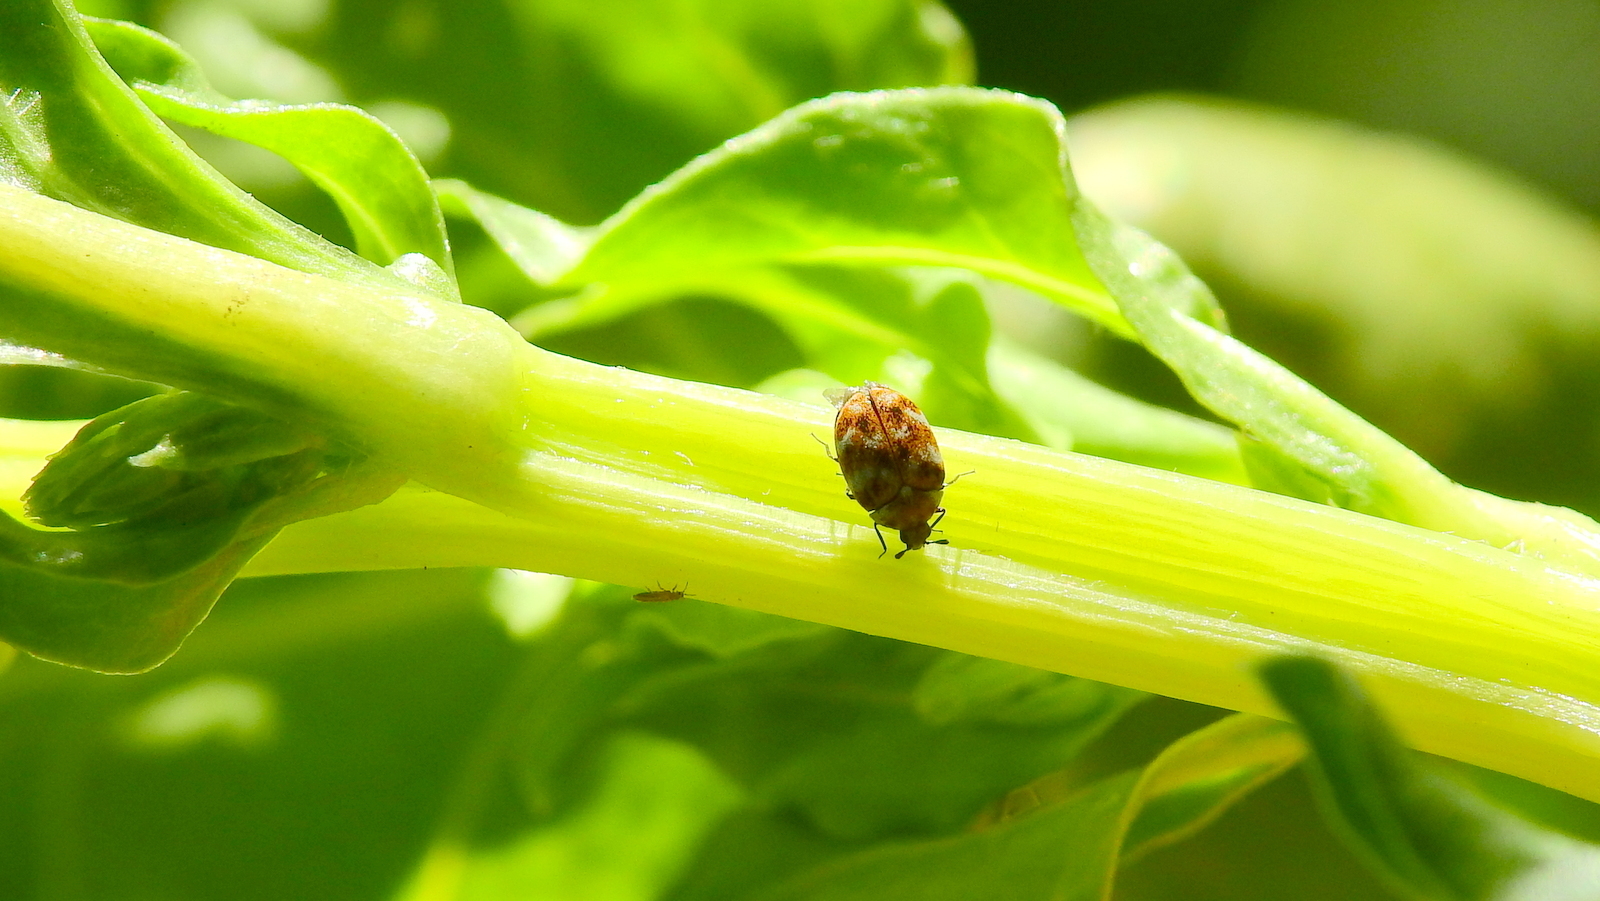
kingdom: Animalia
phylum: Arthropoda
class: Insecta
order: Coleoptera
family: Dermestidae
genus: Anthrenus
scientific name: Anthrenus verbasci
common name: Varied carpet beetle
